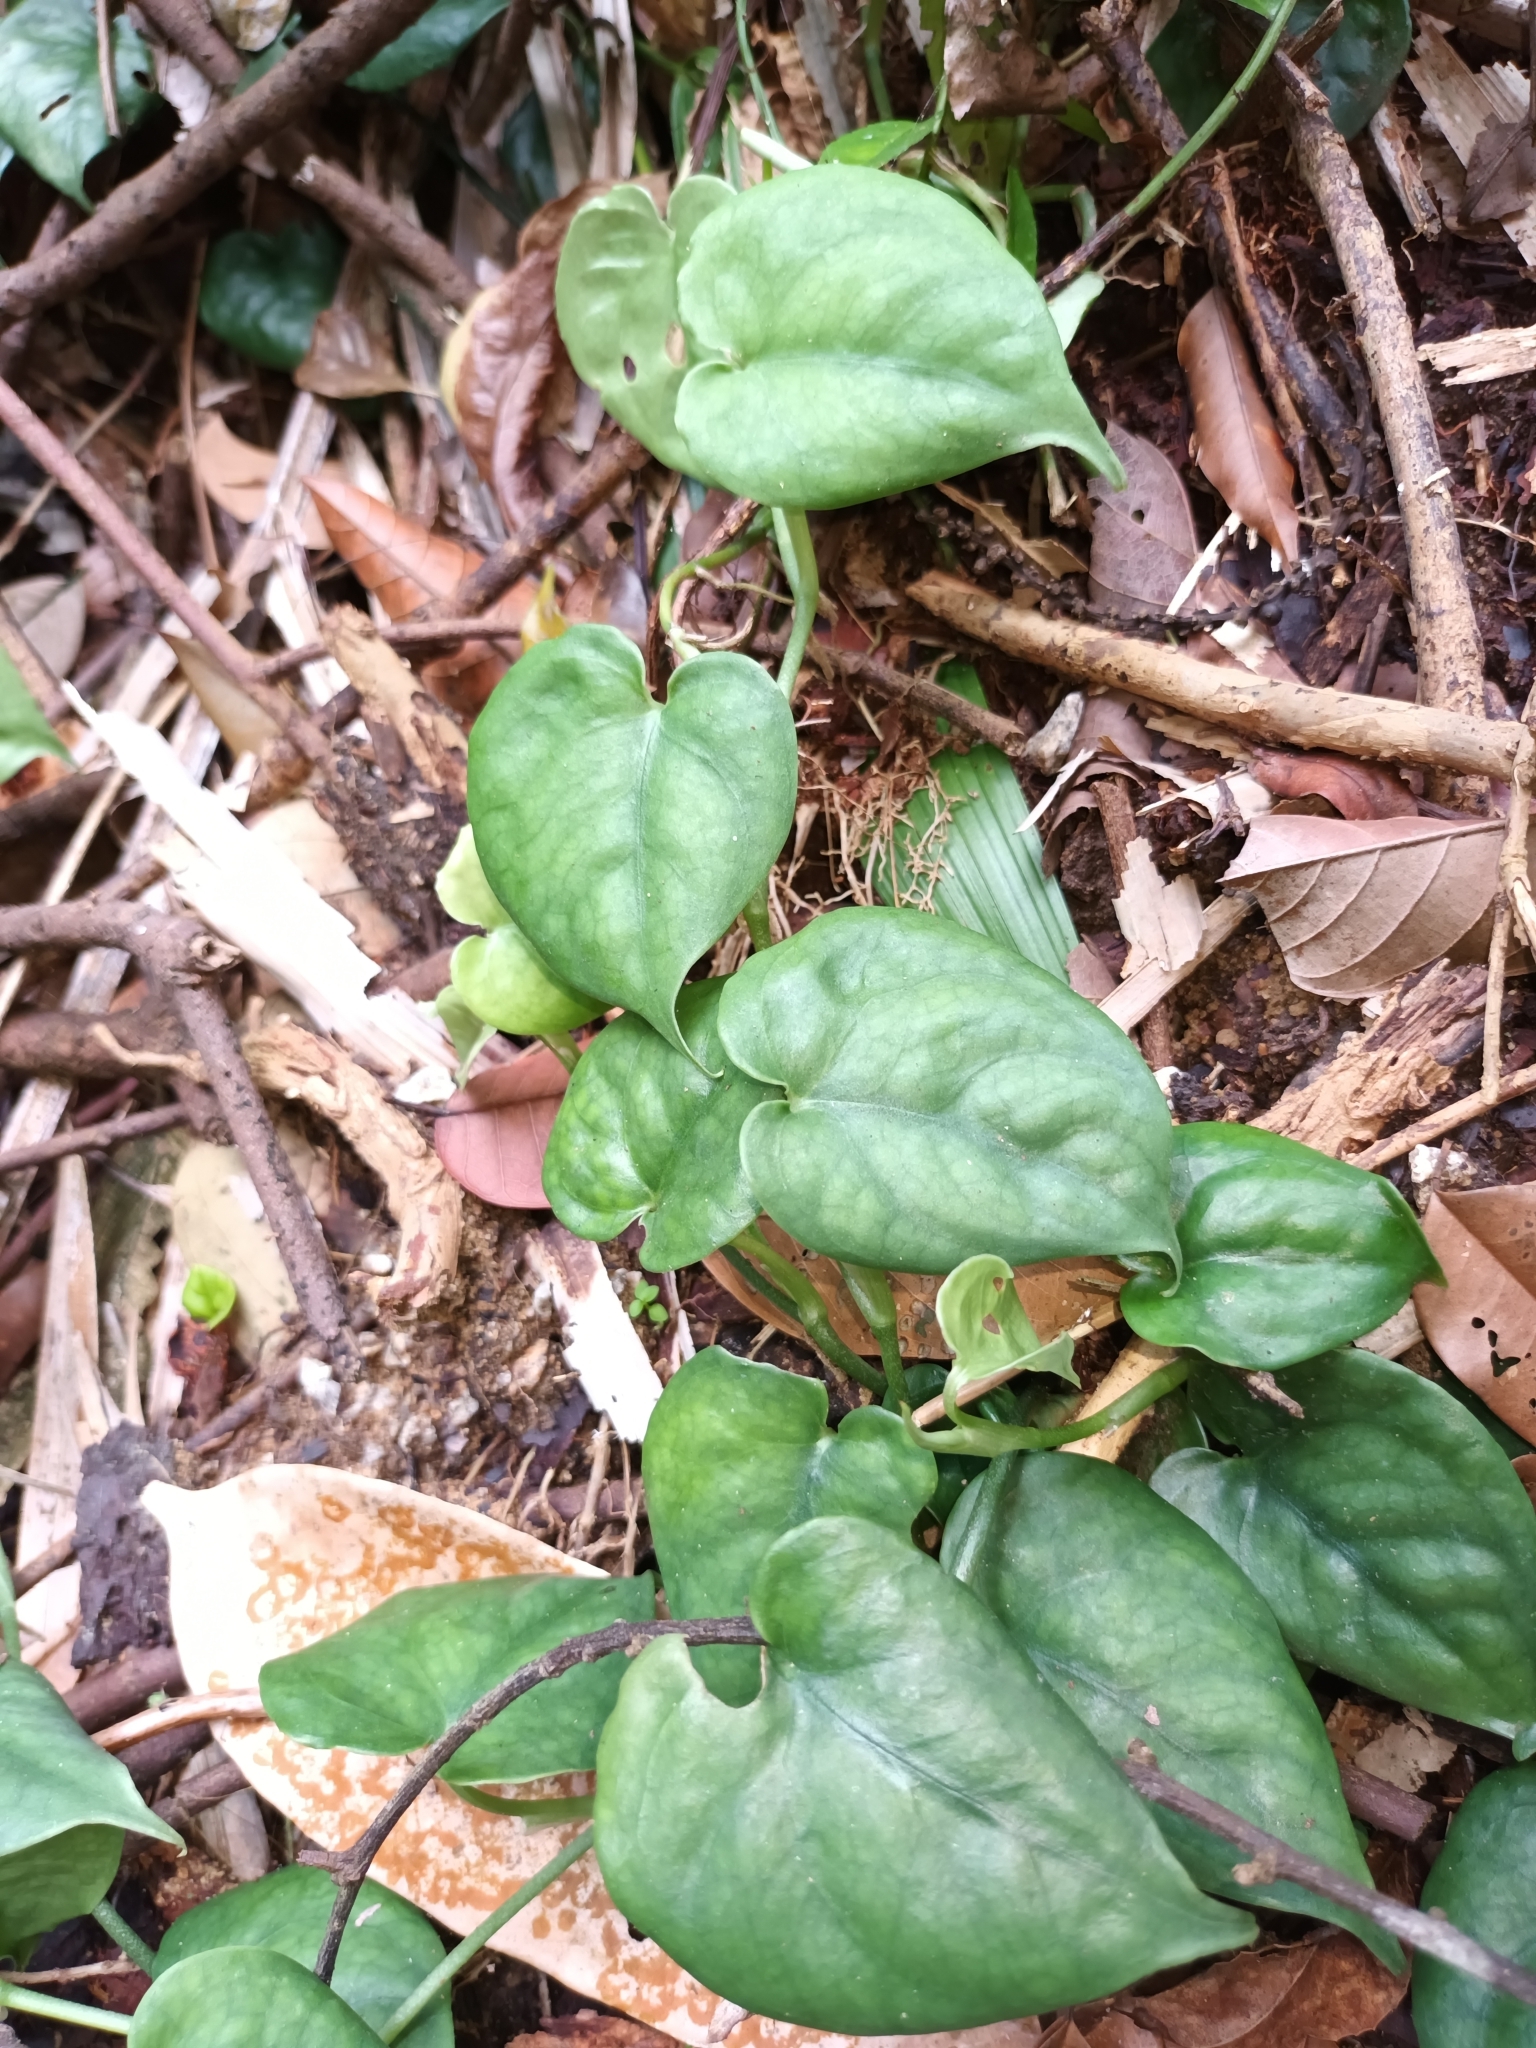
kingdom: Plantae
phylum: Tracheophyta
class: Liliopsida
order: Alismatales
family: Araceae
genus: Scindapsus
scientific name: Scindapsus lucens
